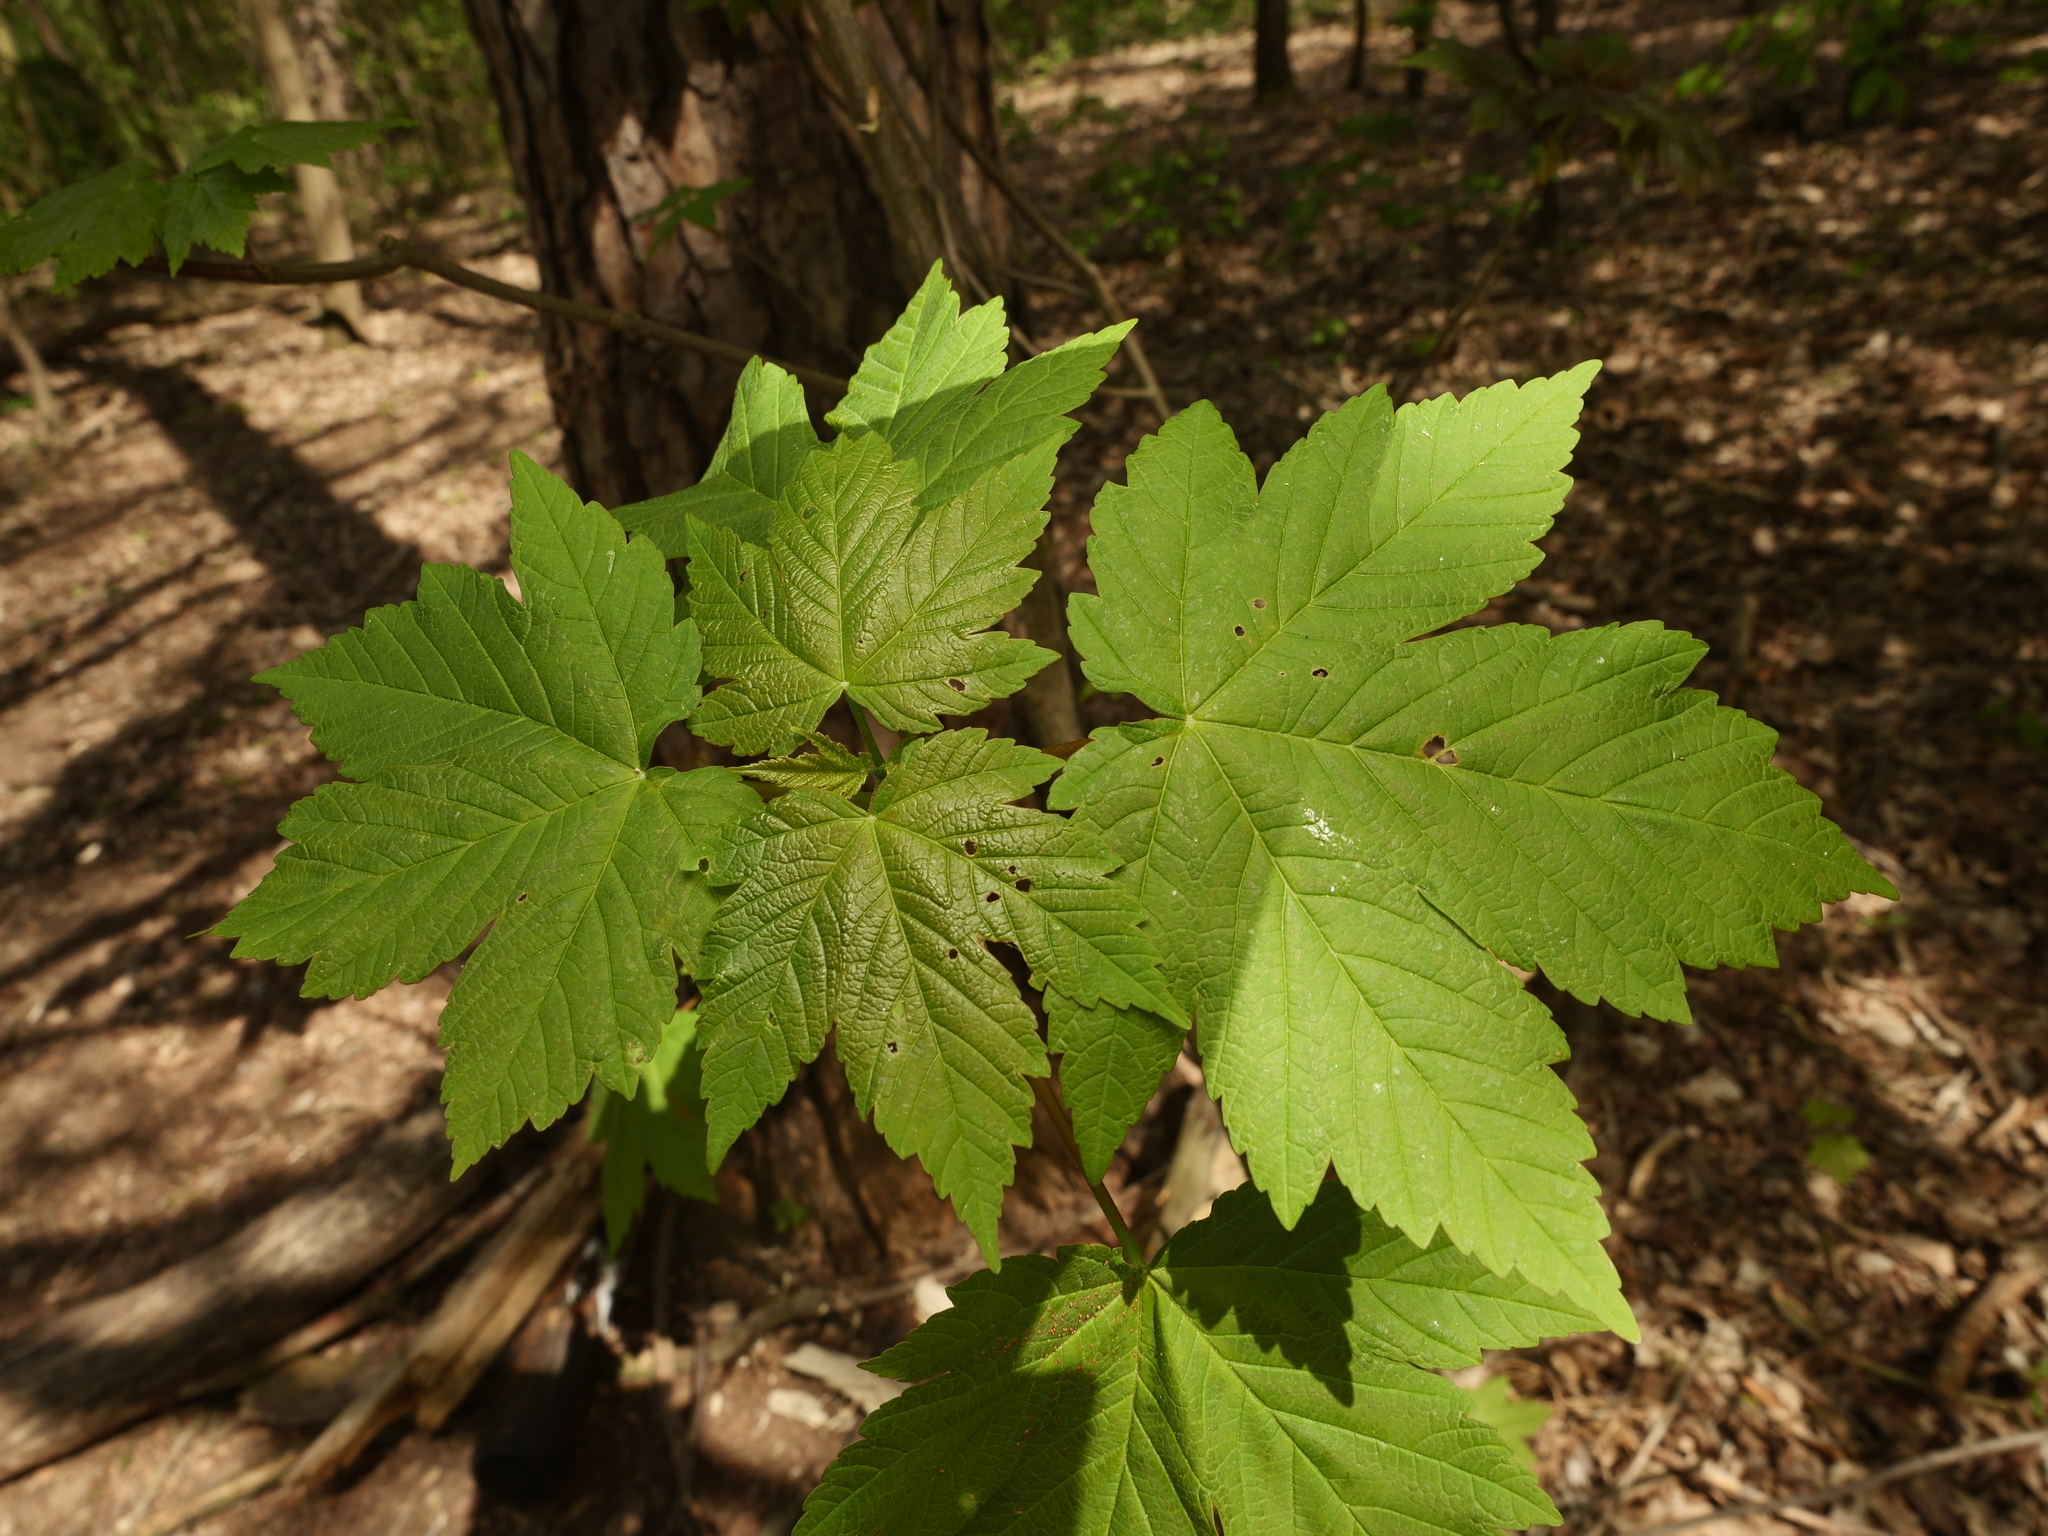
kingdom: Plantae
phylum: Tracheophyta
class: Magnoliopsida
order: Sapindales
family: Sapindaceae
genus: Acer
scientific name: Acer pseudoplatanus
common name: Sycamore
